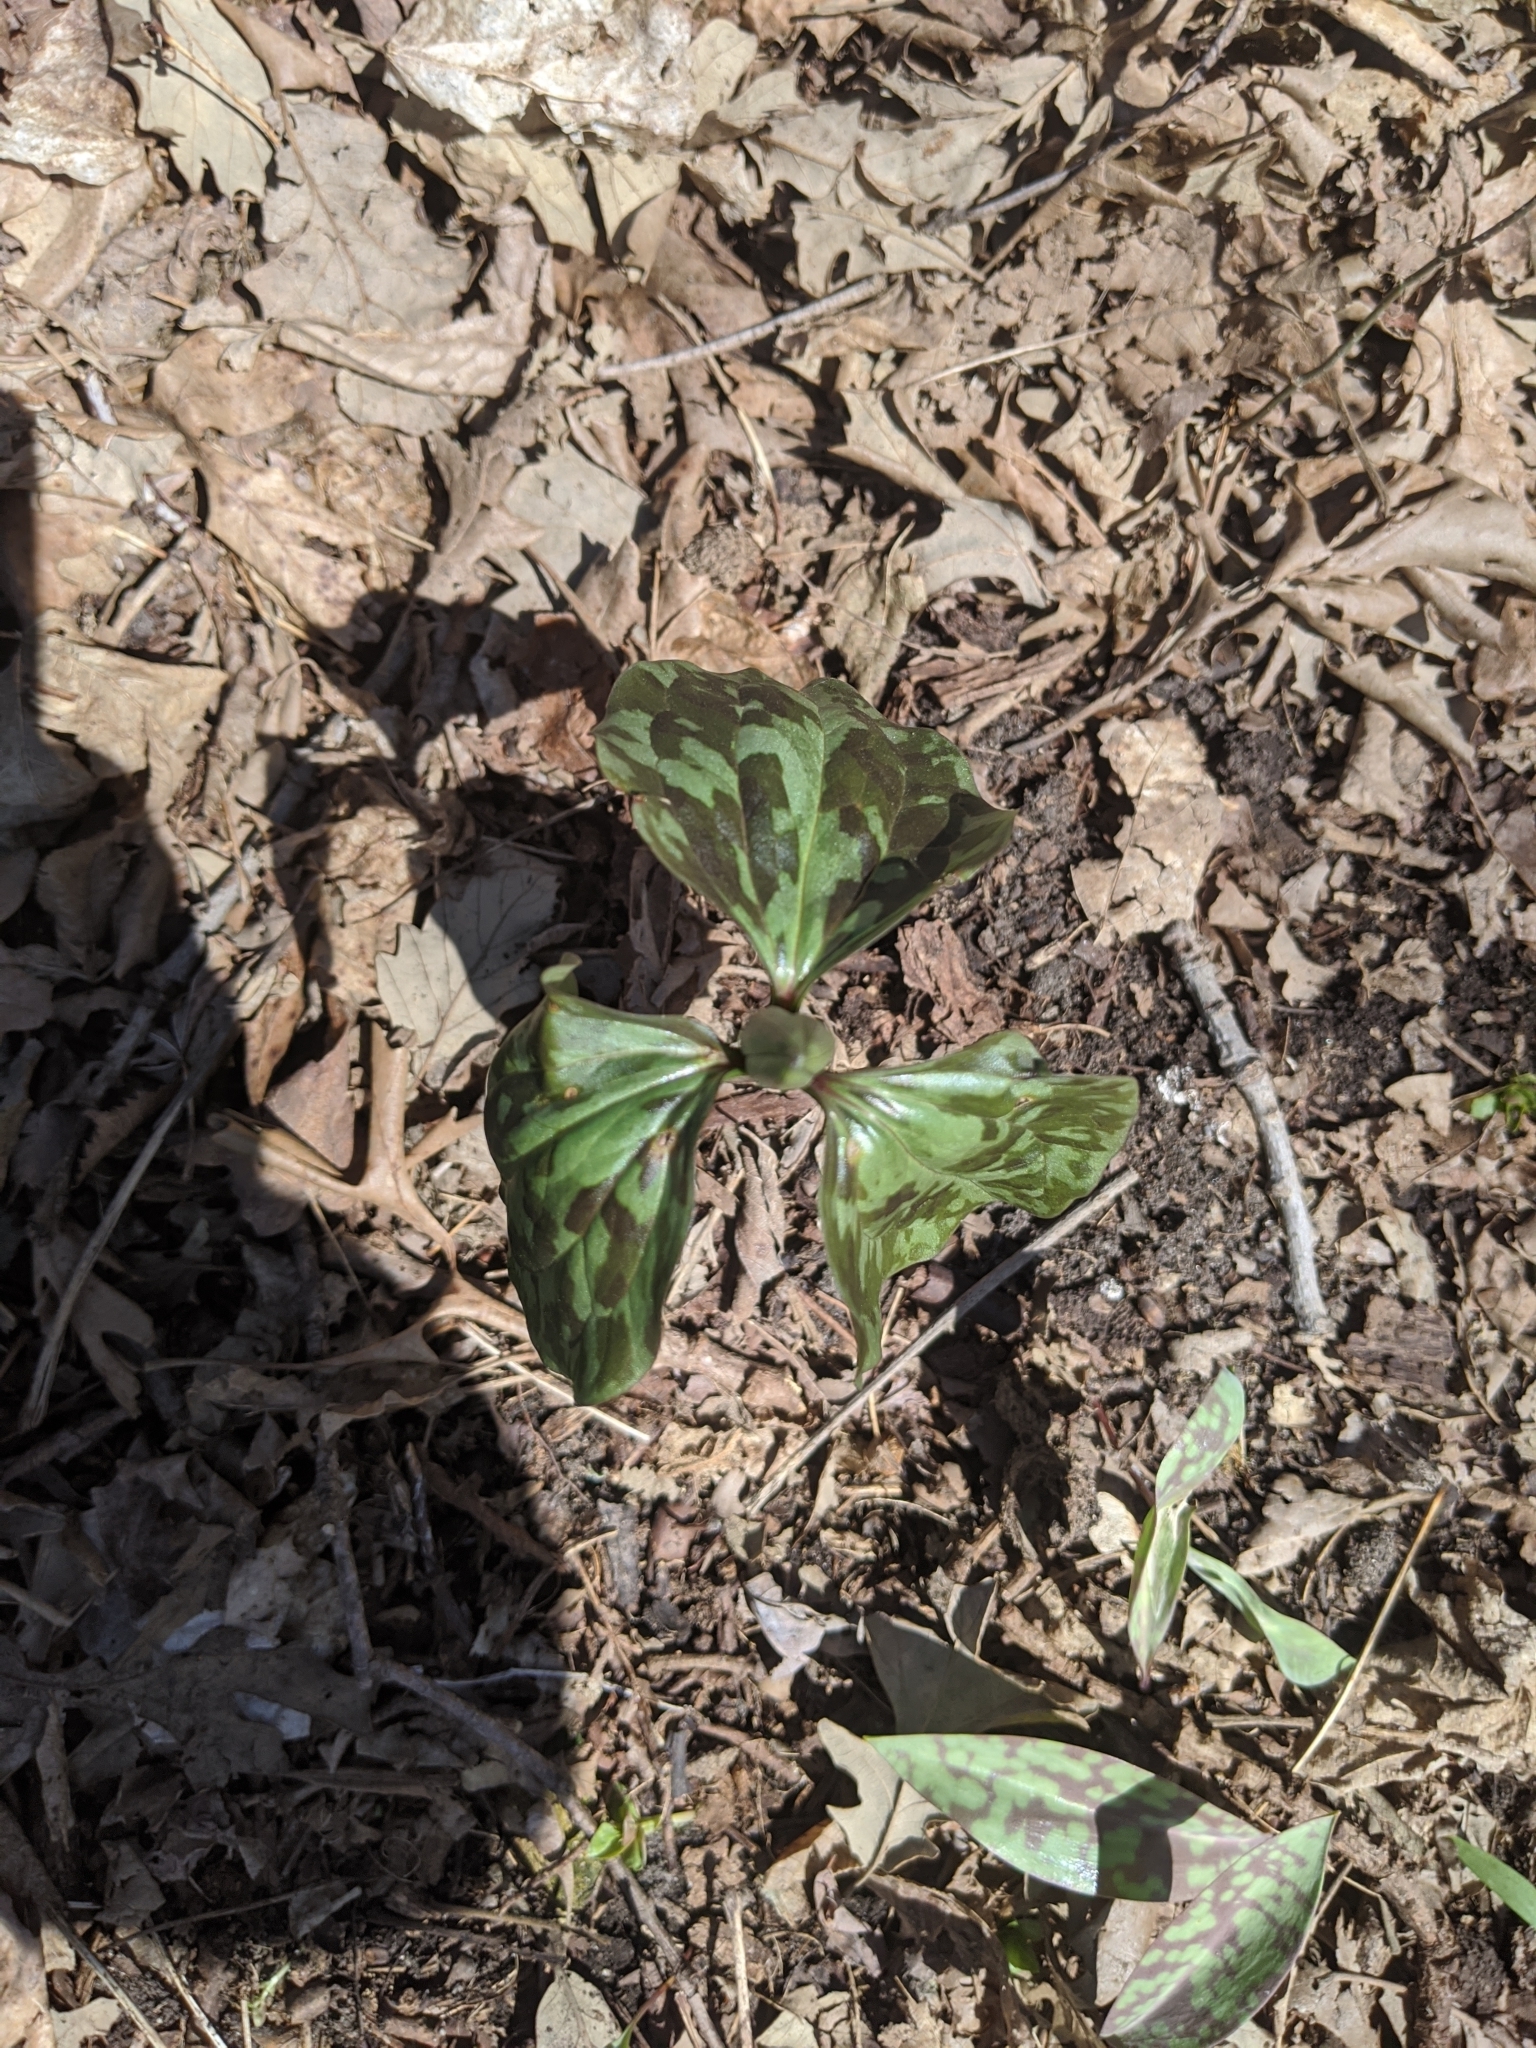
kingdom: Plantae
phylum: Tracheophyta
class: Liliopsida
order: Liliales
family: Melanthiaceae
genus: Trillium
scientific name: Trillium recurvatum
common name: Bloody butcher
